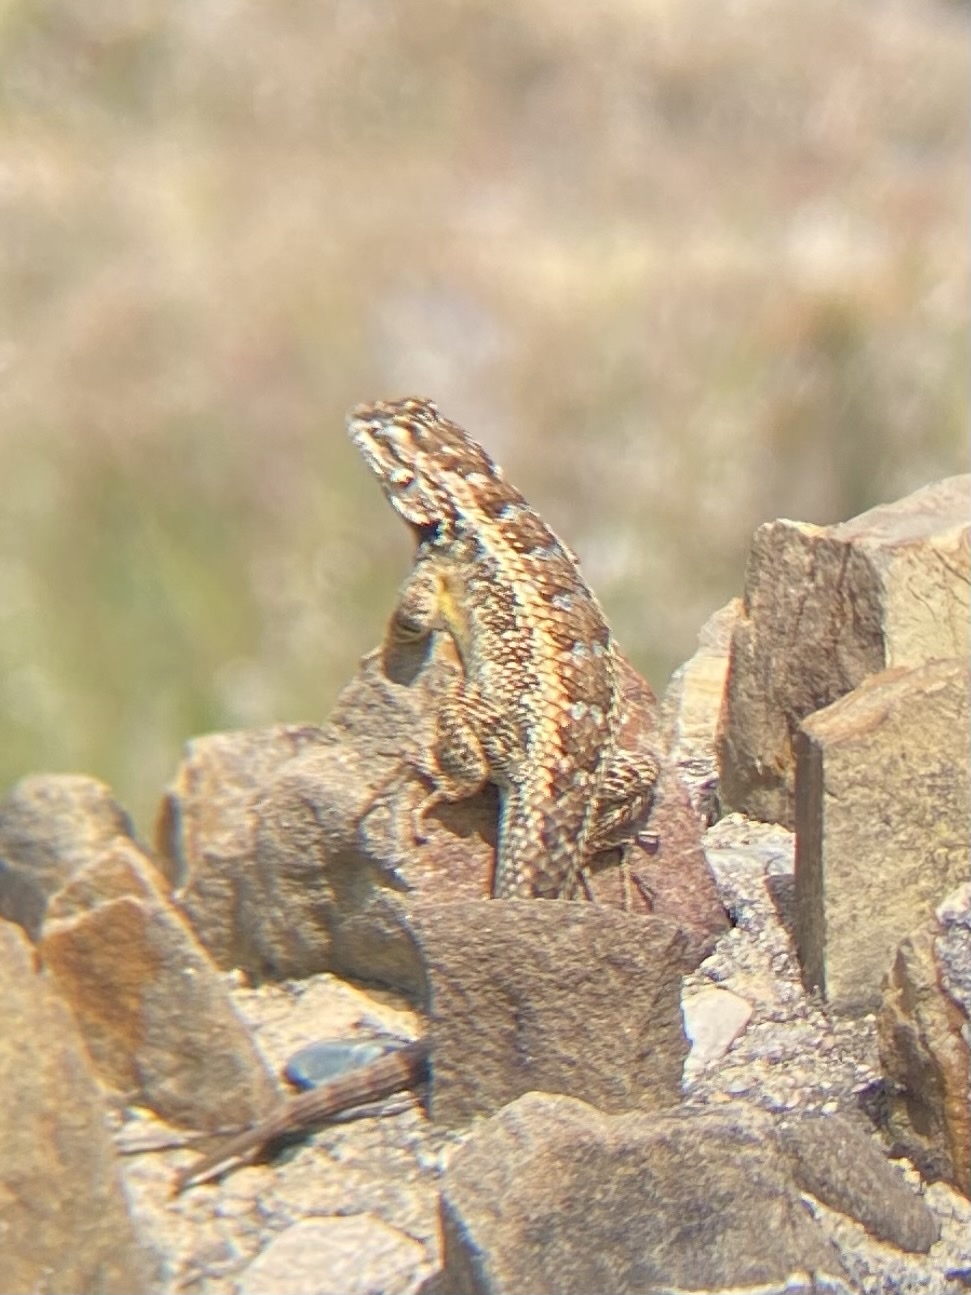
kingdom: Animalia
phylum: Chordata
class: Squamata
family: Phrynosomatidae
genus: Sceloporus
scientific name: Sceloporus spinosus
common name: Blue-spotted spiny lizard [caeruleopunctatus]
